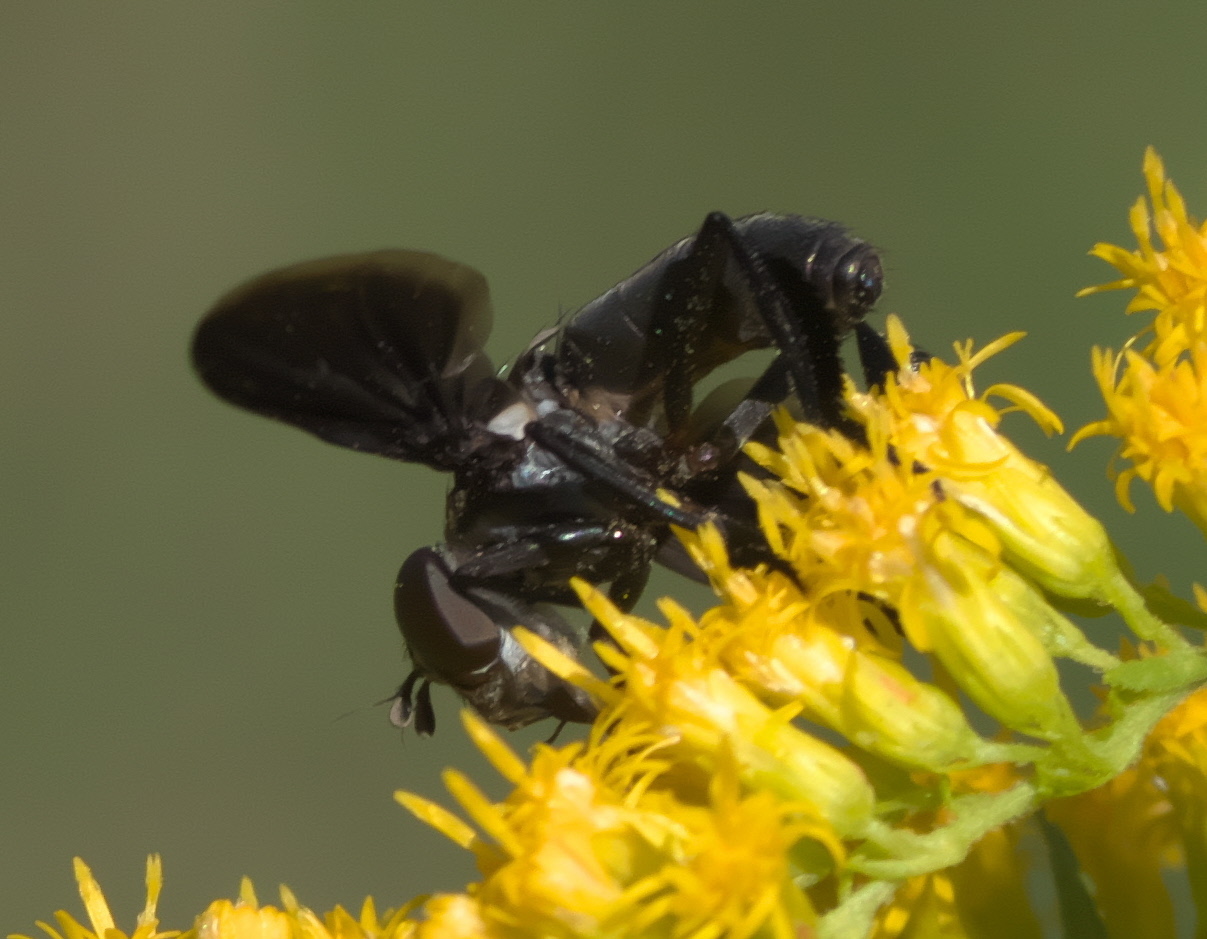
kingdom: Animalia
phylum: Arthropoda
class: Insecta
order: Diptera
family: Tachinidae
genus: Trichopoda
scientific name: Trichopoda lanipes
